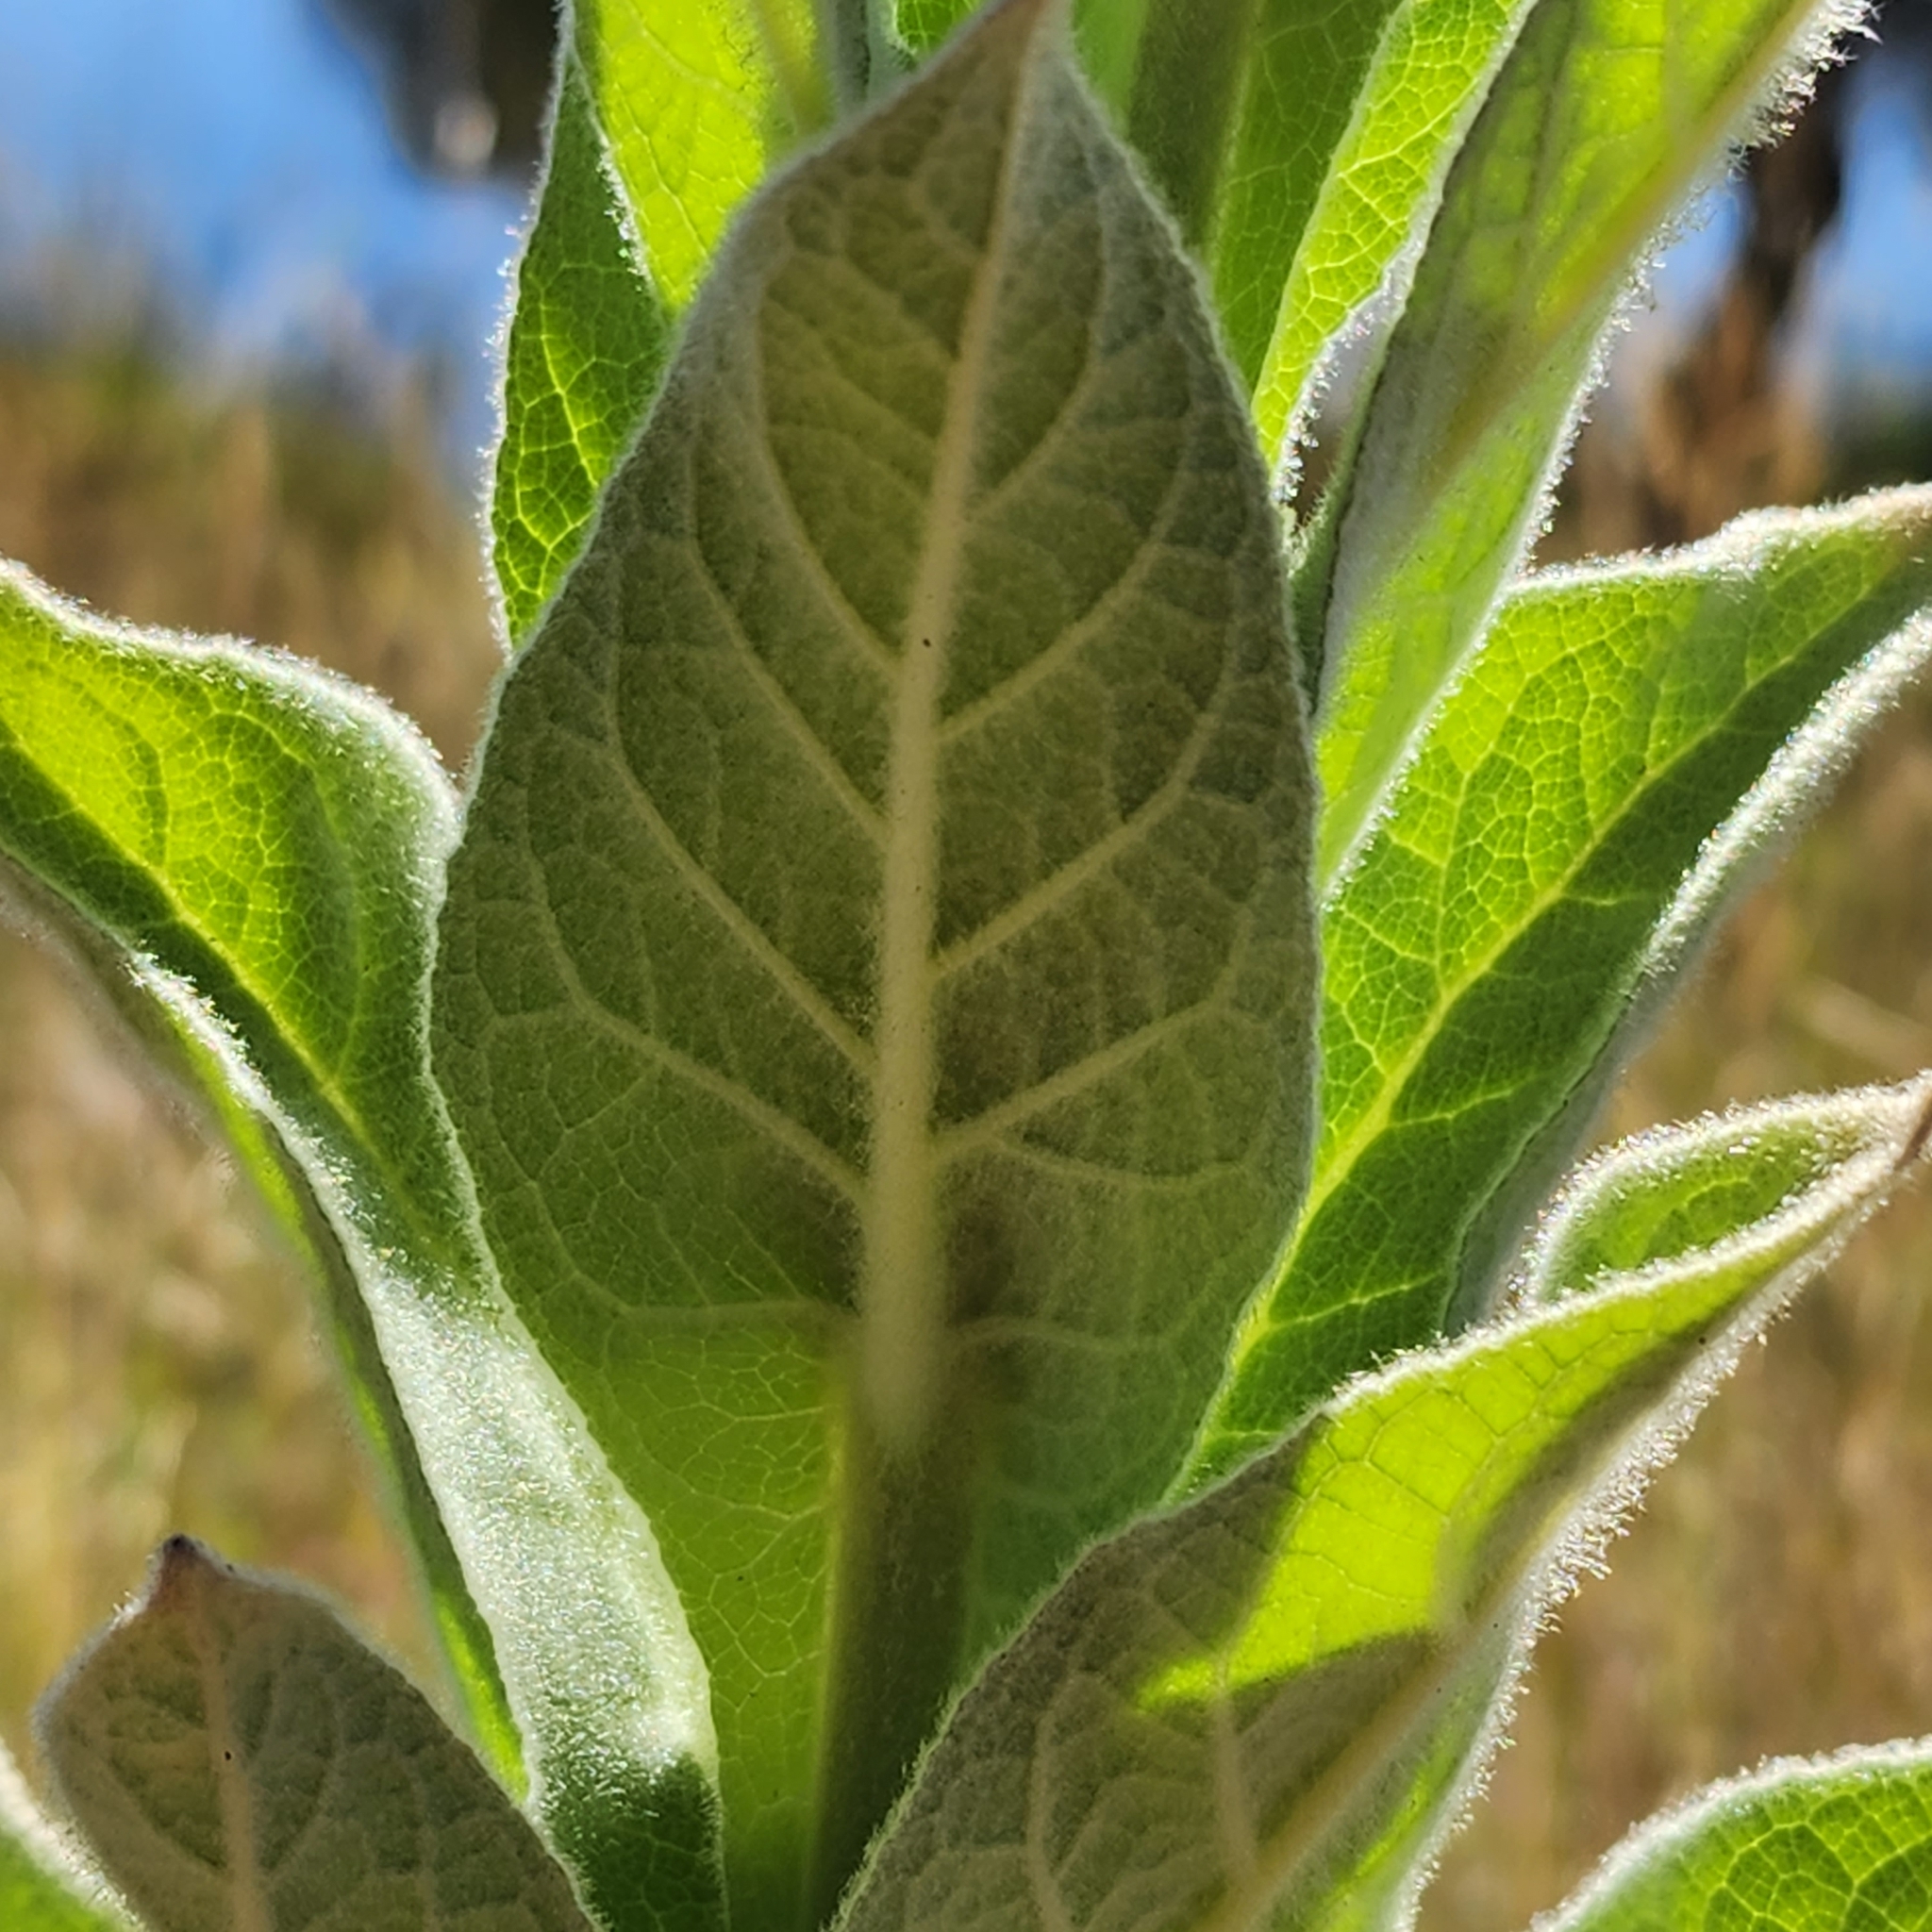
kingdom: Plantae
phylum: Tracheophyta
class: Magnoliopsida
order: Lamiales
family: Scrophulariaceae
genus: Verbascum
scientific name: Verbascum thapsus
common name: Common mullein
